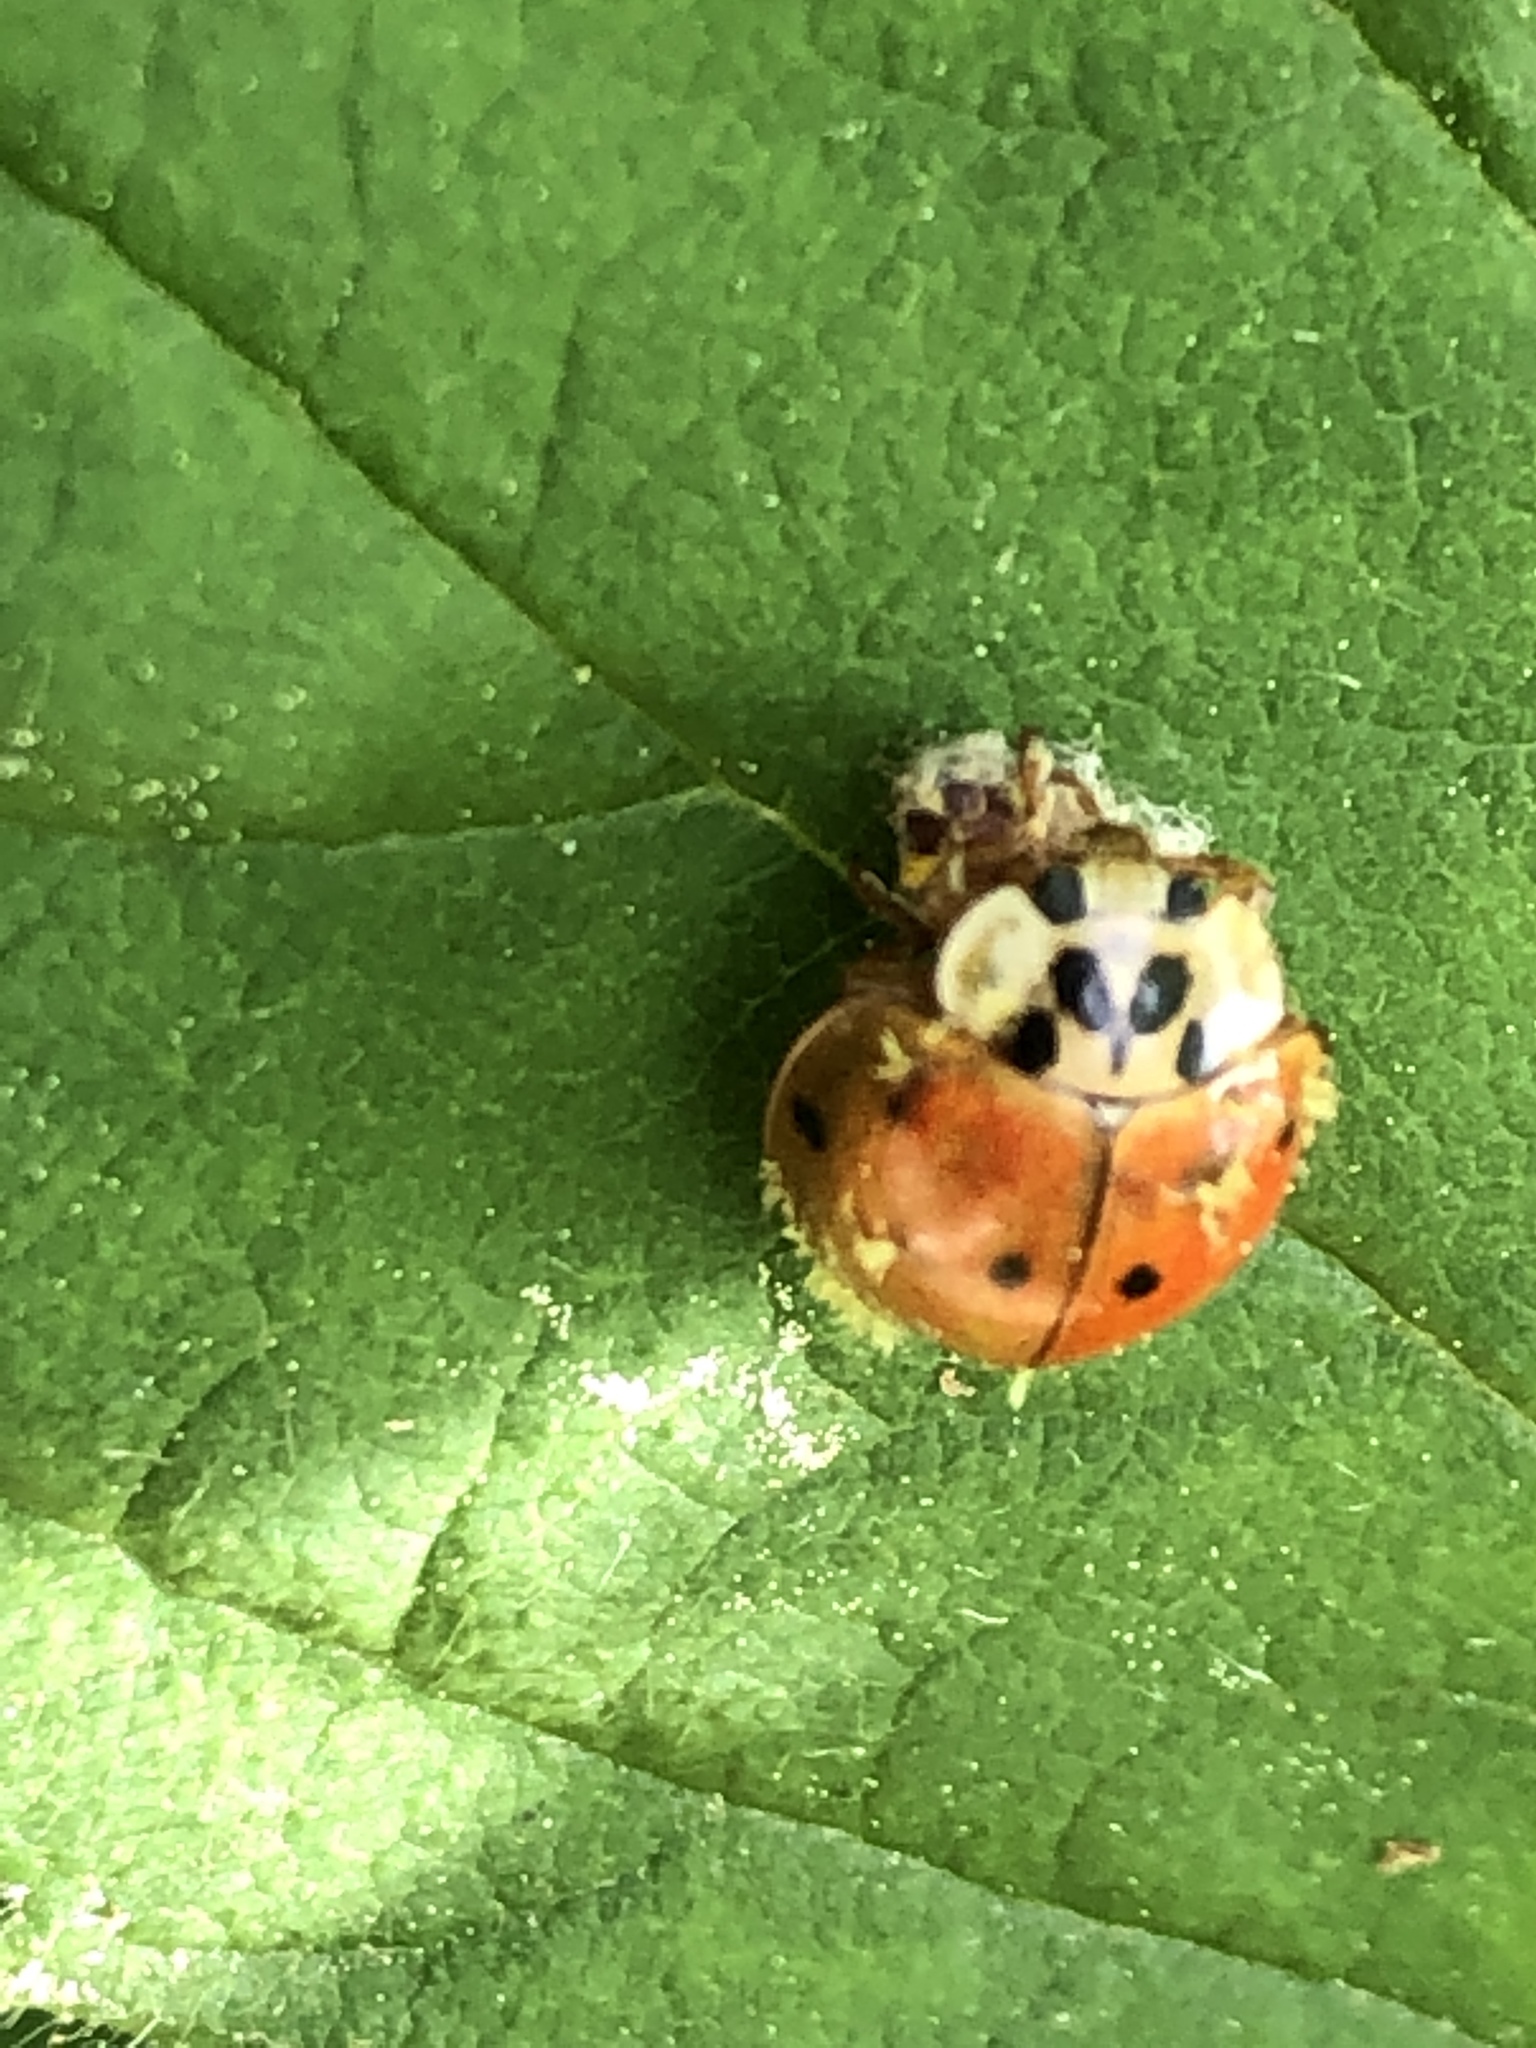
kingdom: Fungi
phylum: Ascomycota
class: Laboulbeniomycetes
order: Laboulbeniales
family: Laboulbeniaceae
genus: Hesperomyces
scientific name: Hesperomyces harmoniae
